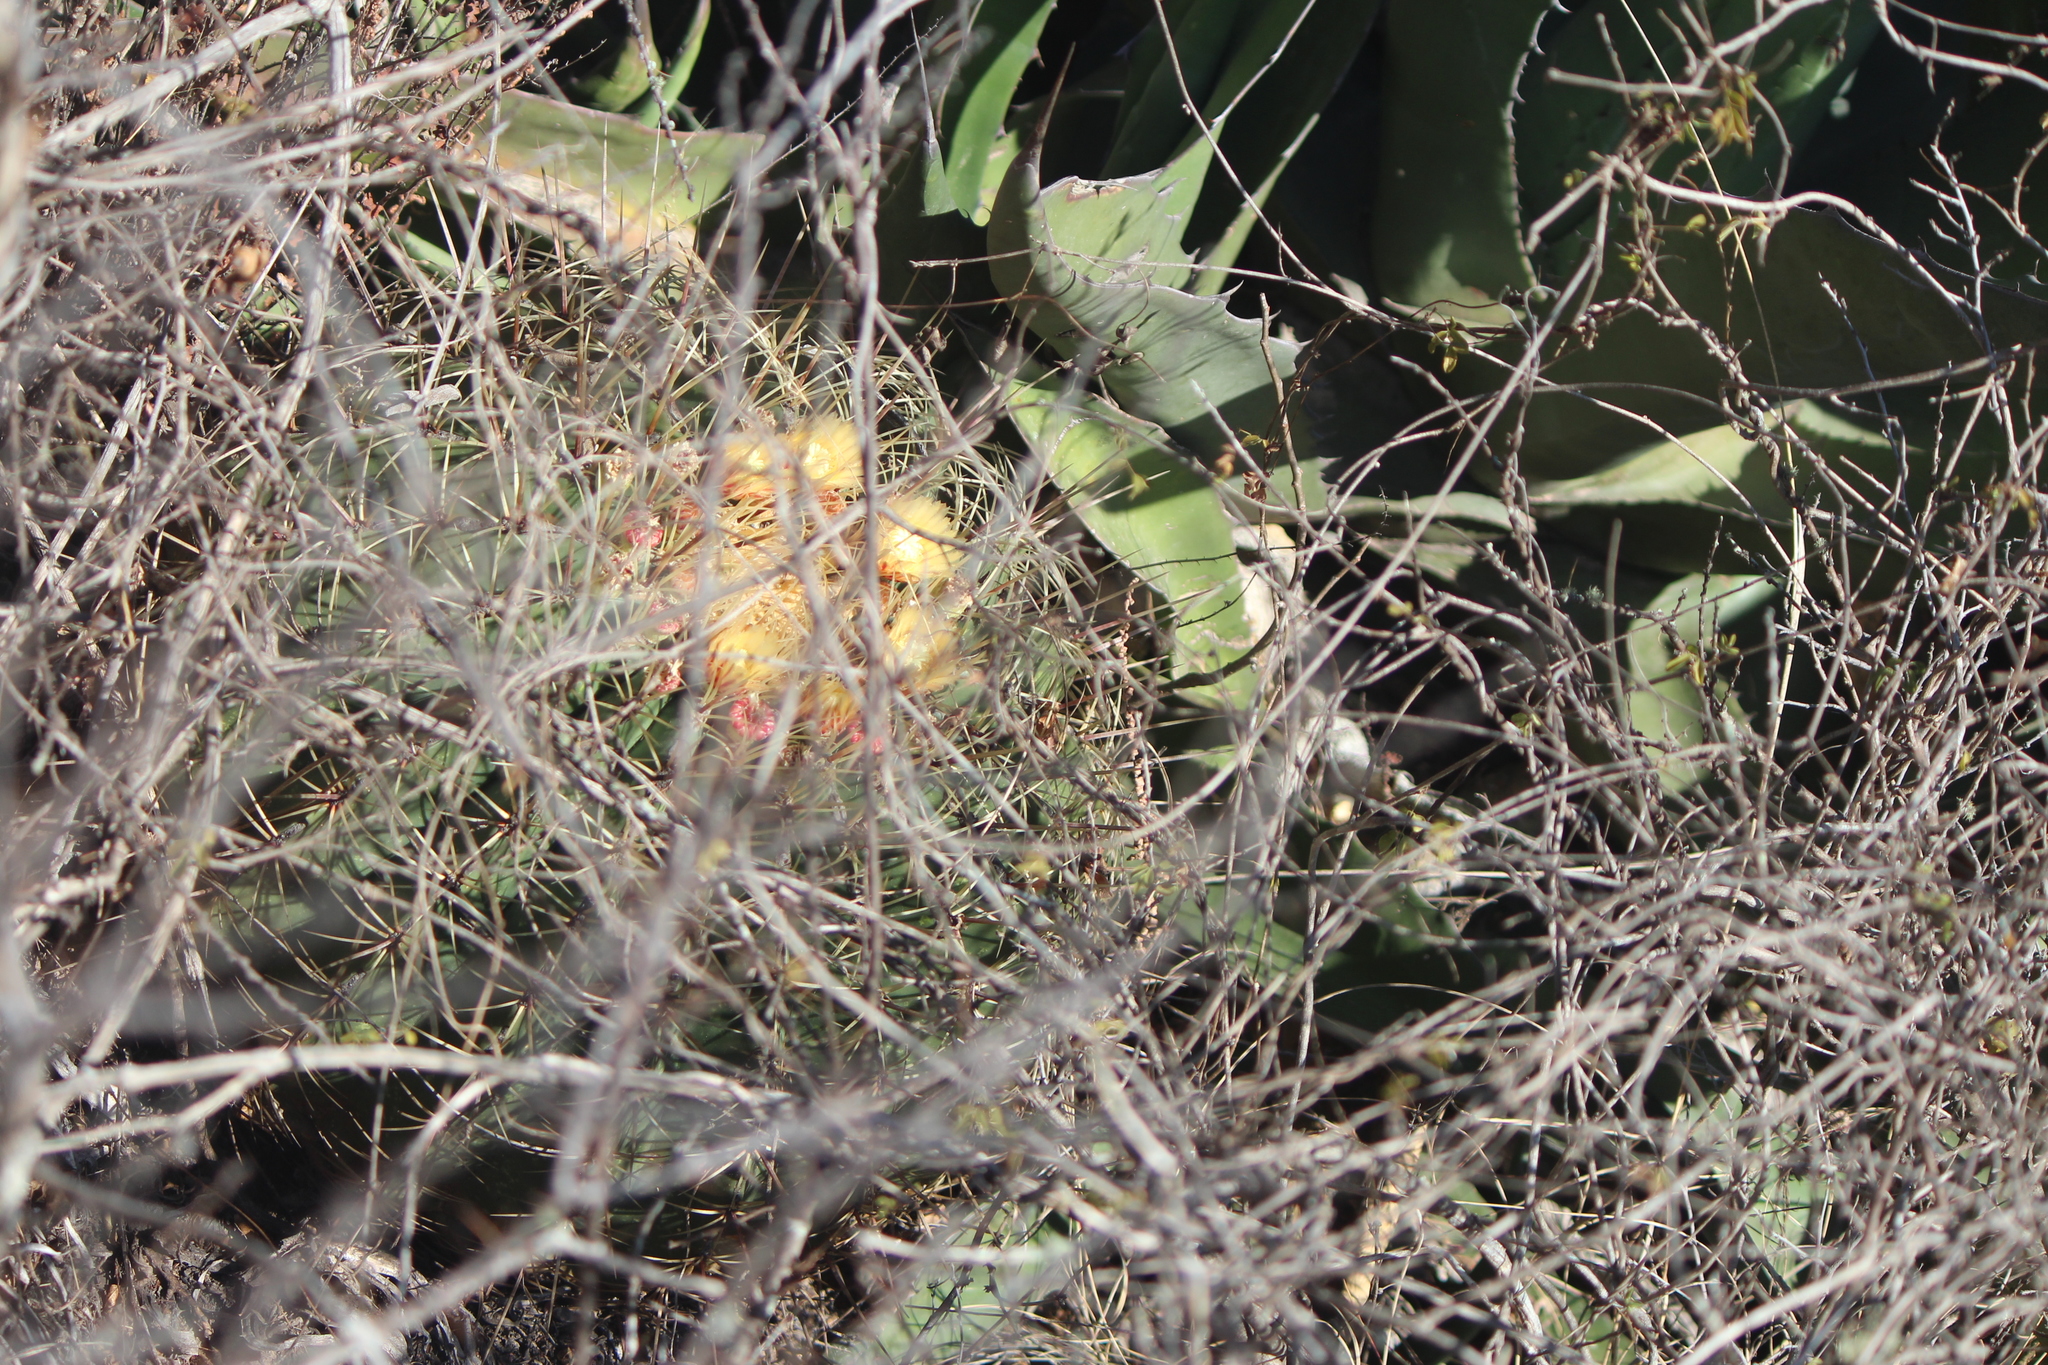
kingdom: Plantae
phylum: Tracheophyta
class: Magnoliopsida
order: Caryophyllales
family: Cactaceae
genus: Bisnaga
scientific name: Bisnaga histrix
